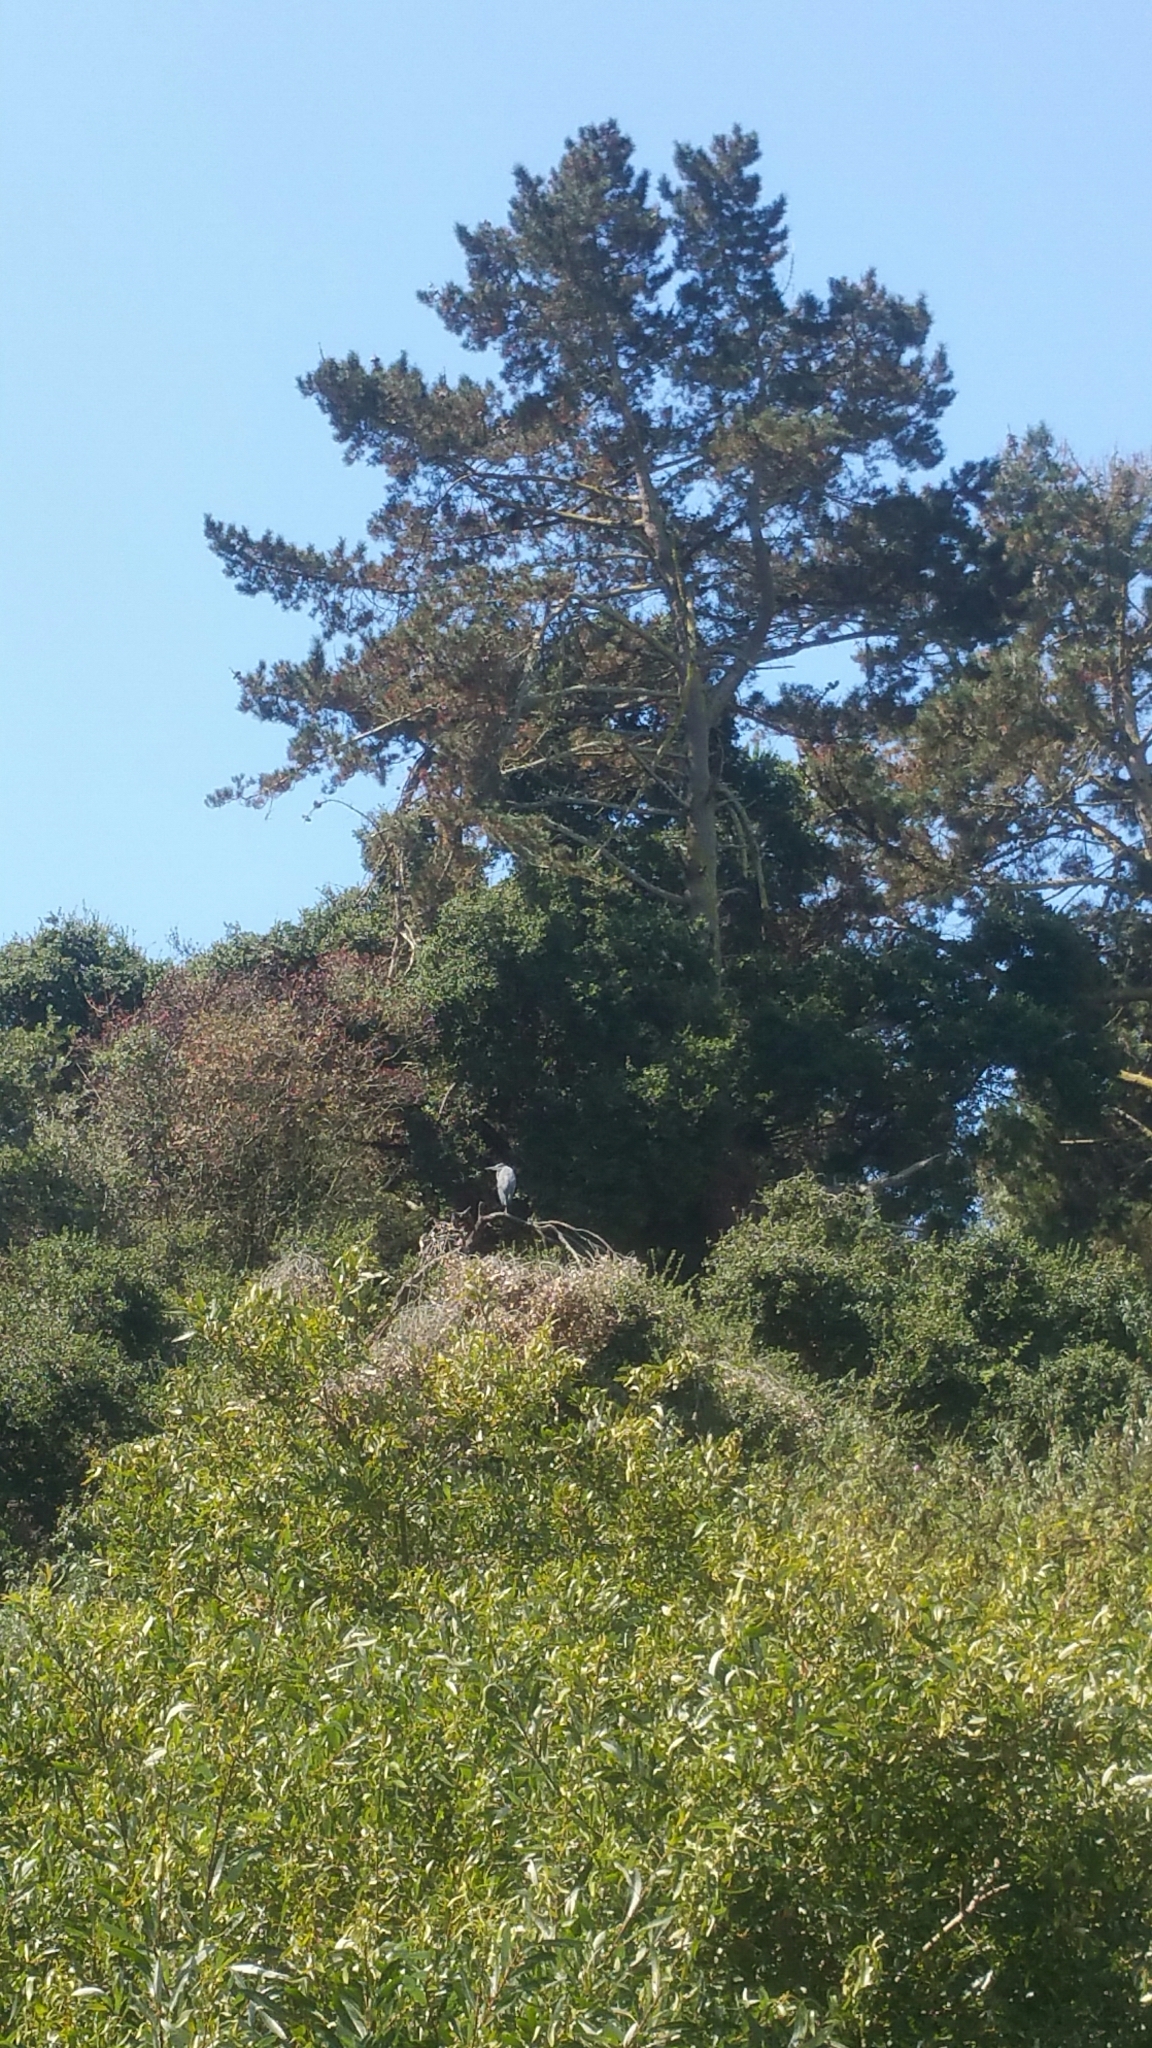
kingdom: Animalia
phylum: Chordata
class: Aves
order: Pelecaniformes
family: Ardeidae
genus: Ardea
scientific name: Ardea herodias
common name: Great blue heron
